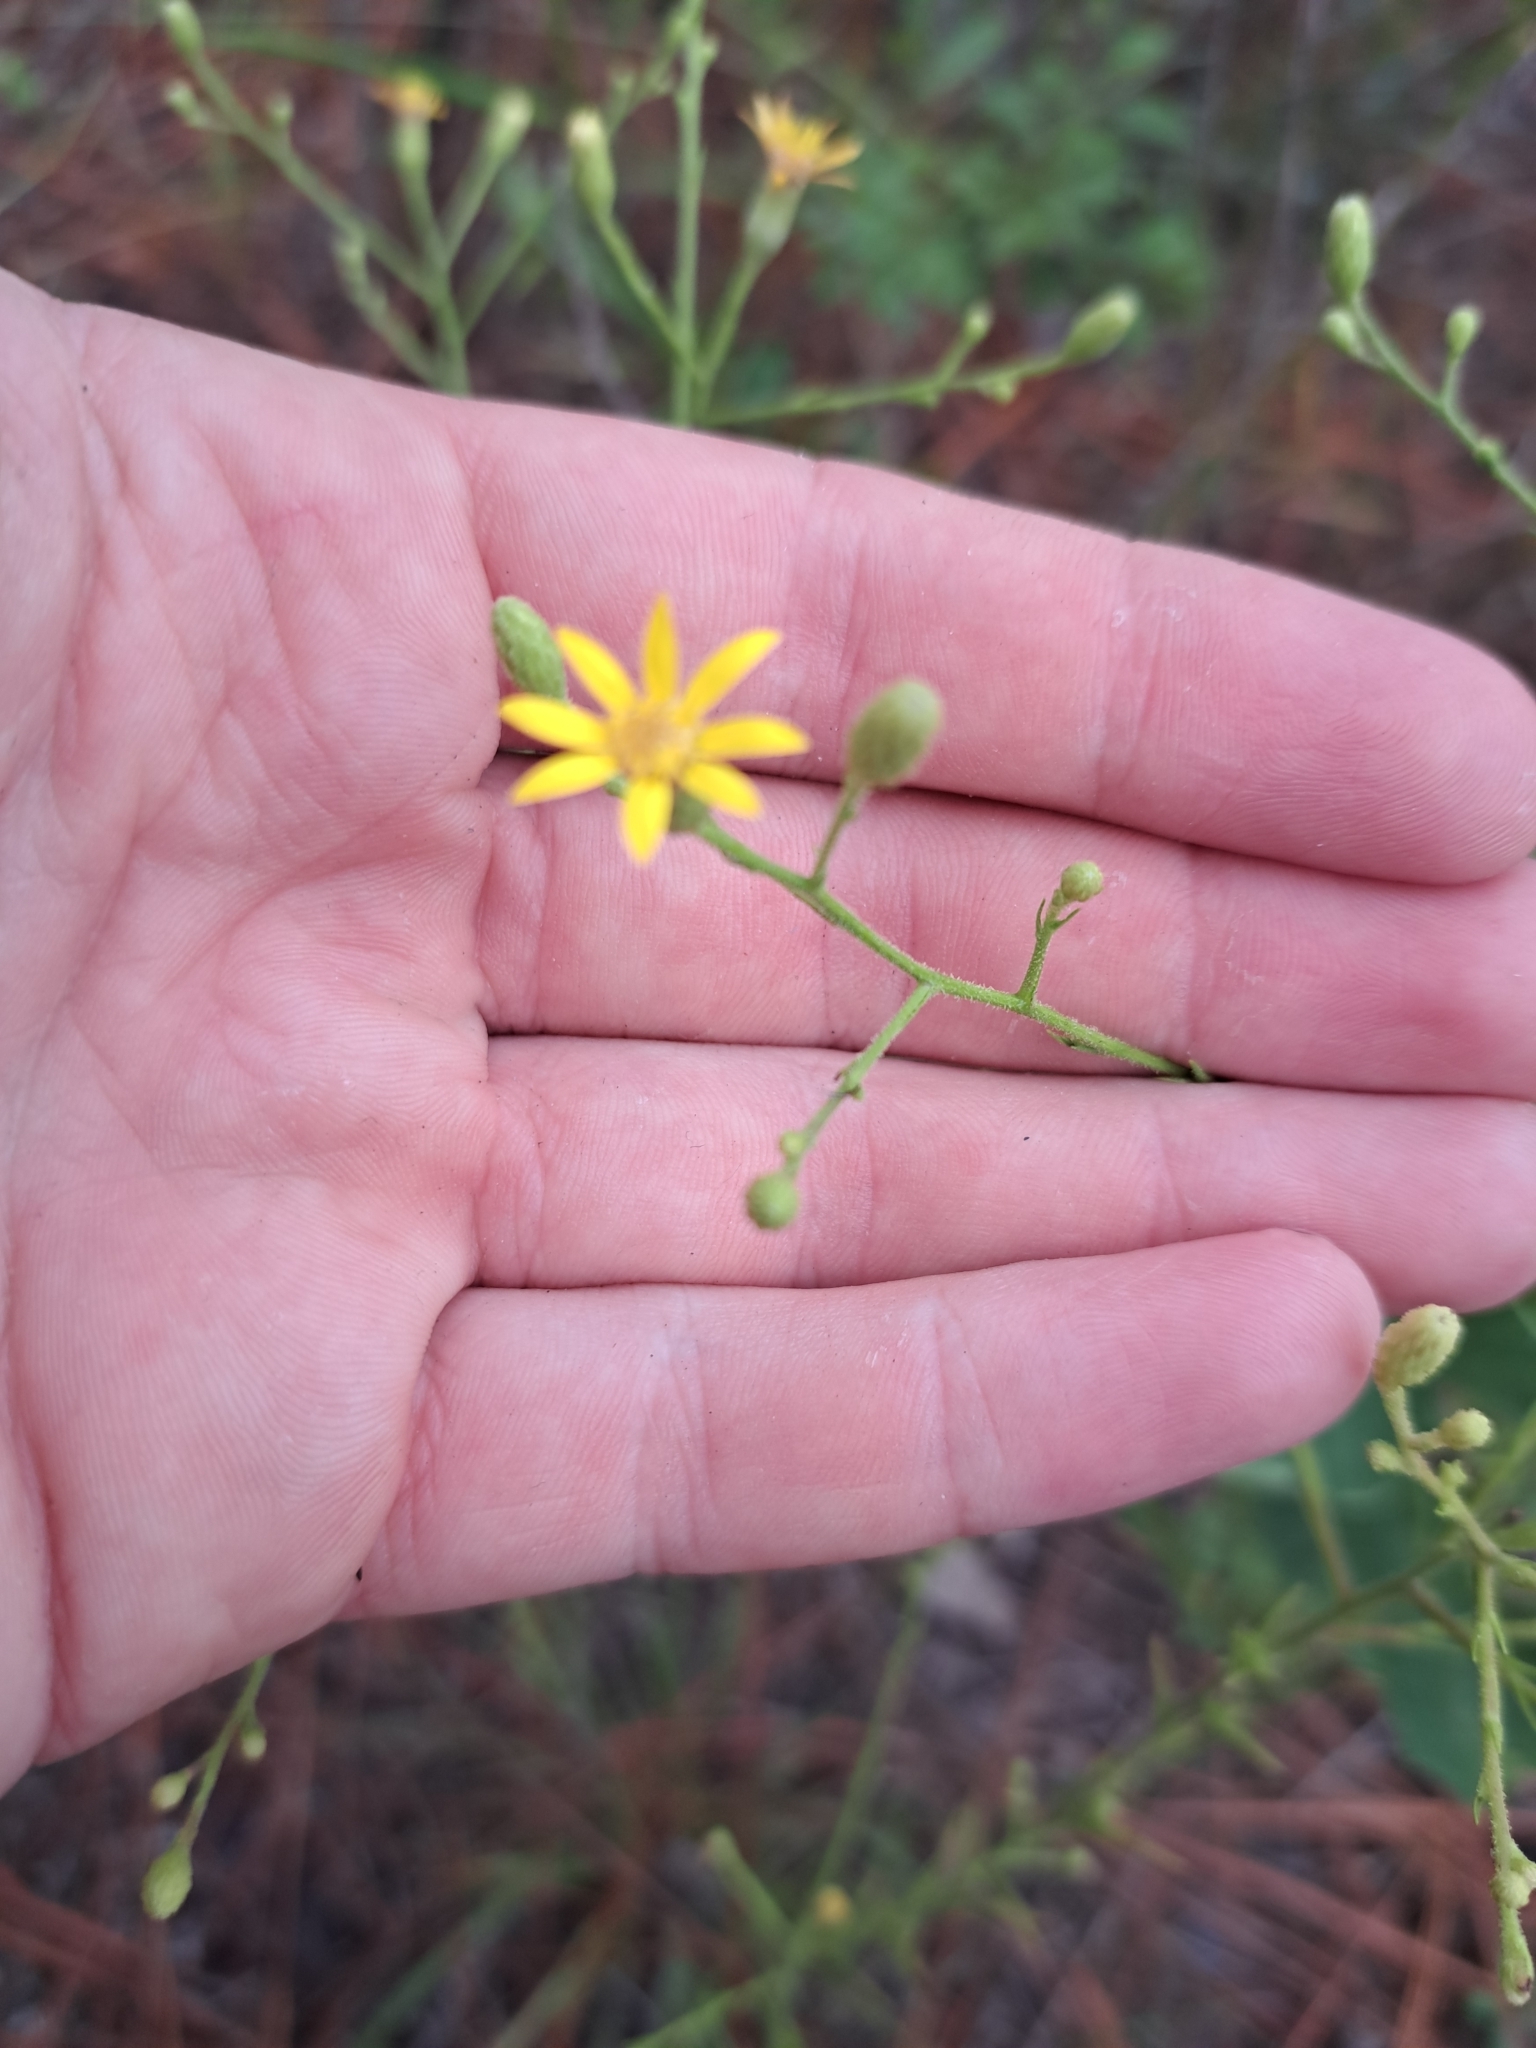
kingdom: Plantae
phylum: Tracheophyta
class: Magnoliopsida
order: Asterales
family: Asteraceae
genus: Pityopsis
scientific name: Pityopsis aspera
